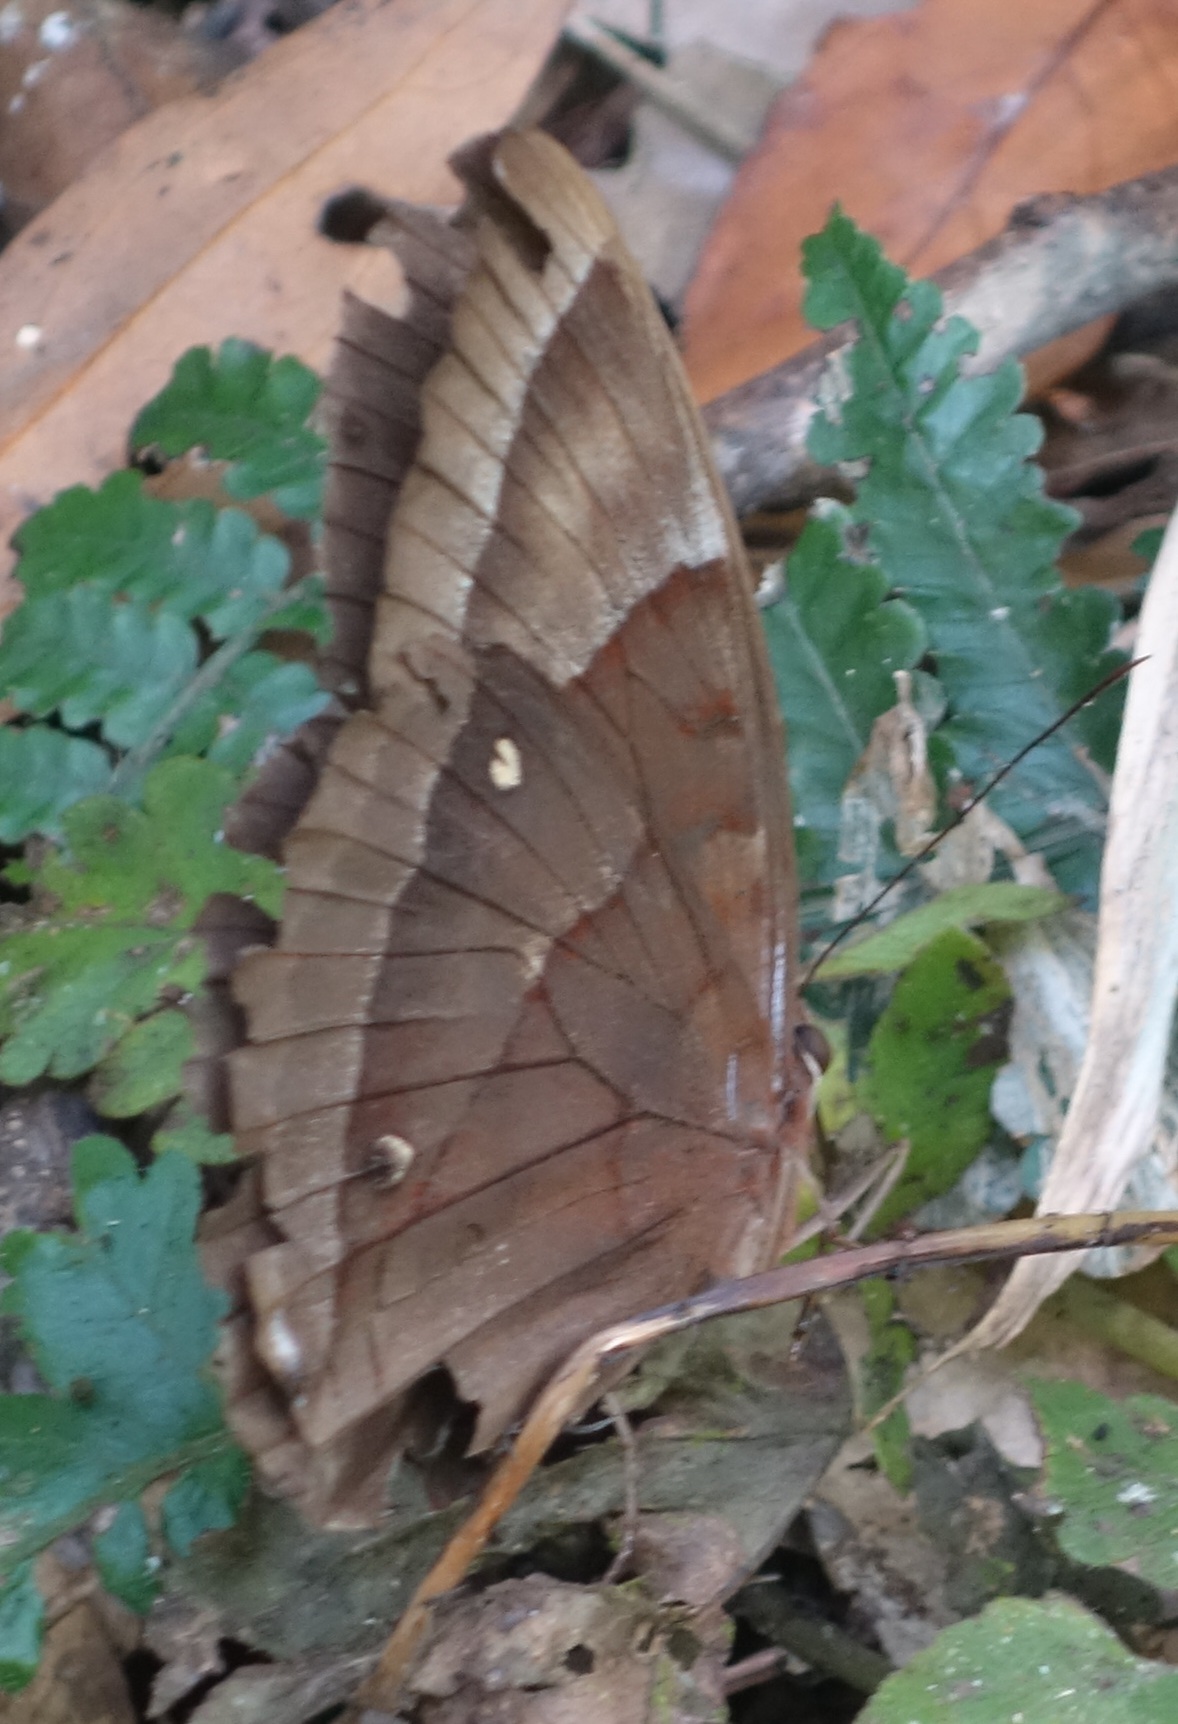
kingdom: Animalia
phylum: Arthropoda
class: Insecta
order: Lepidoptera
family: Nymphalidae
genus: Thaumantis
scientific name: Thaumantis diores
